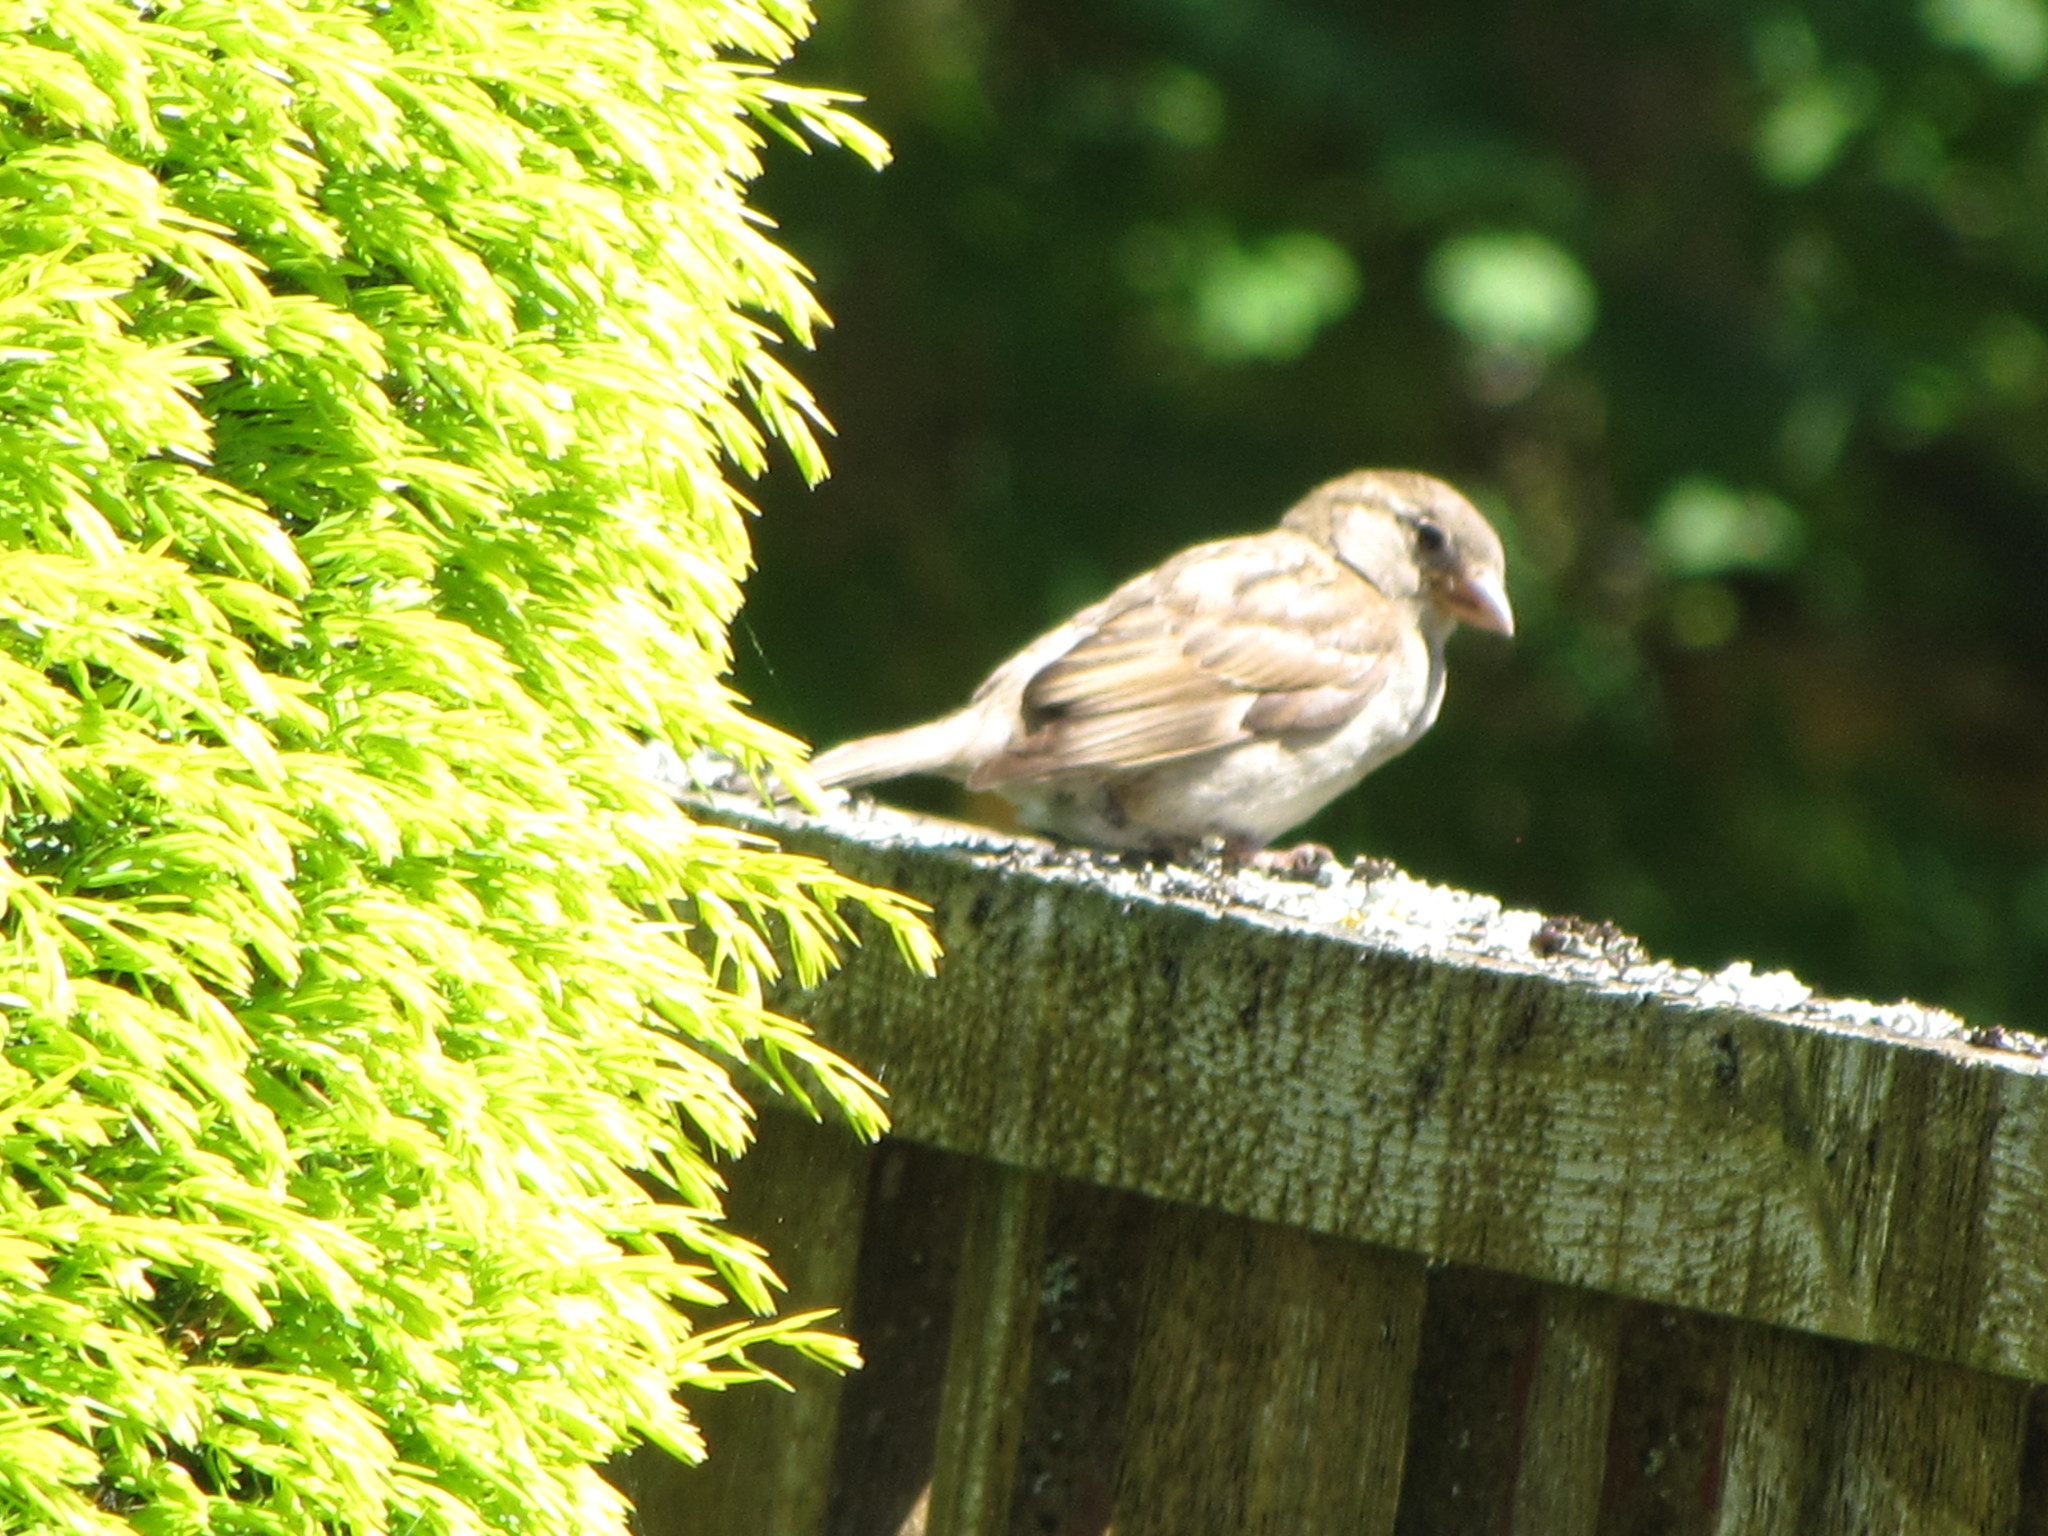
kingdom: Animalia
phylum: Chordata
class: Aves
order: Passeriformes
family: Passeridae
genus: Passer
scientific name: Passer domesticus
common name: House sparrow
